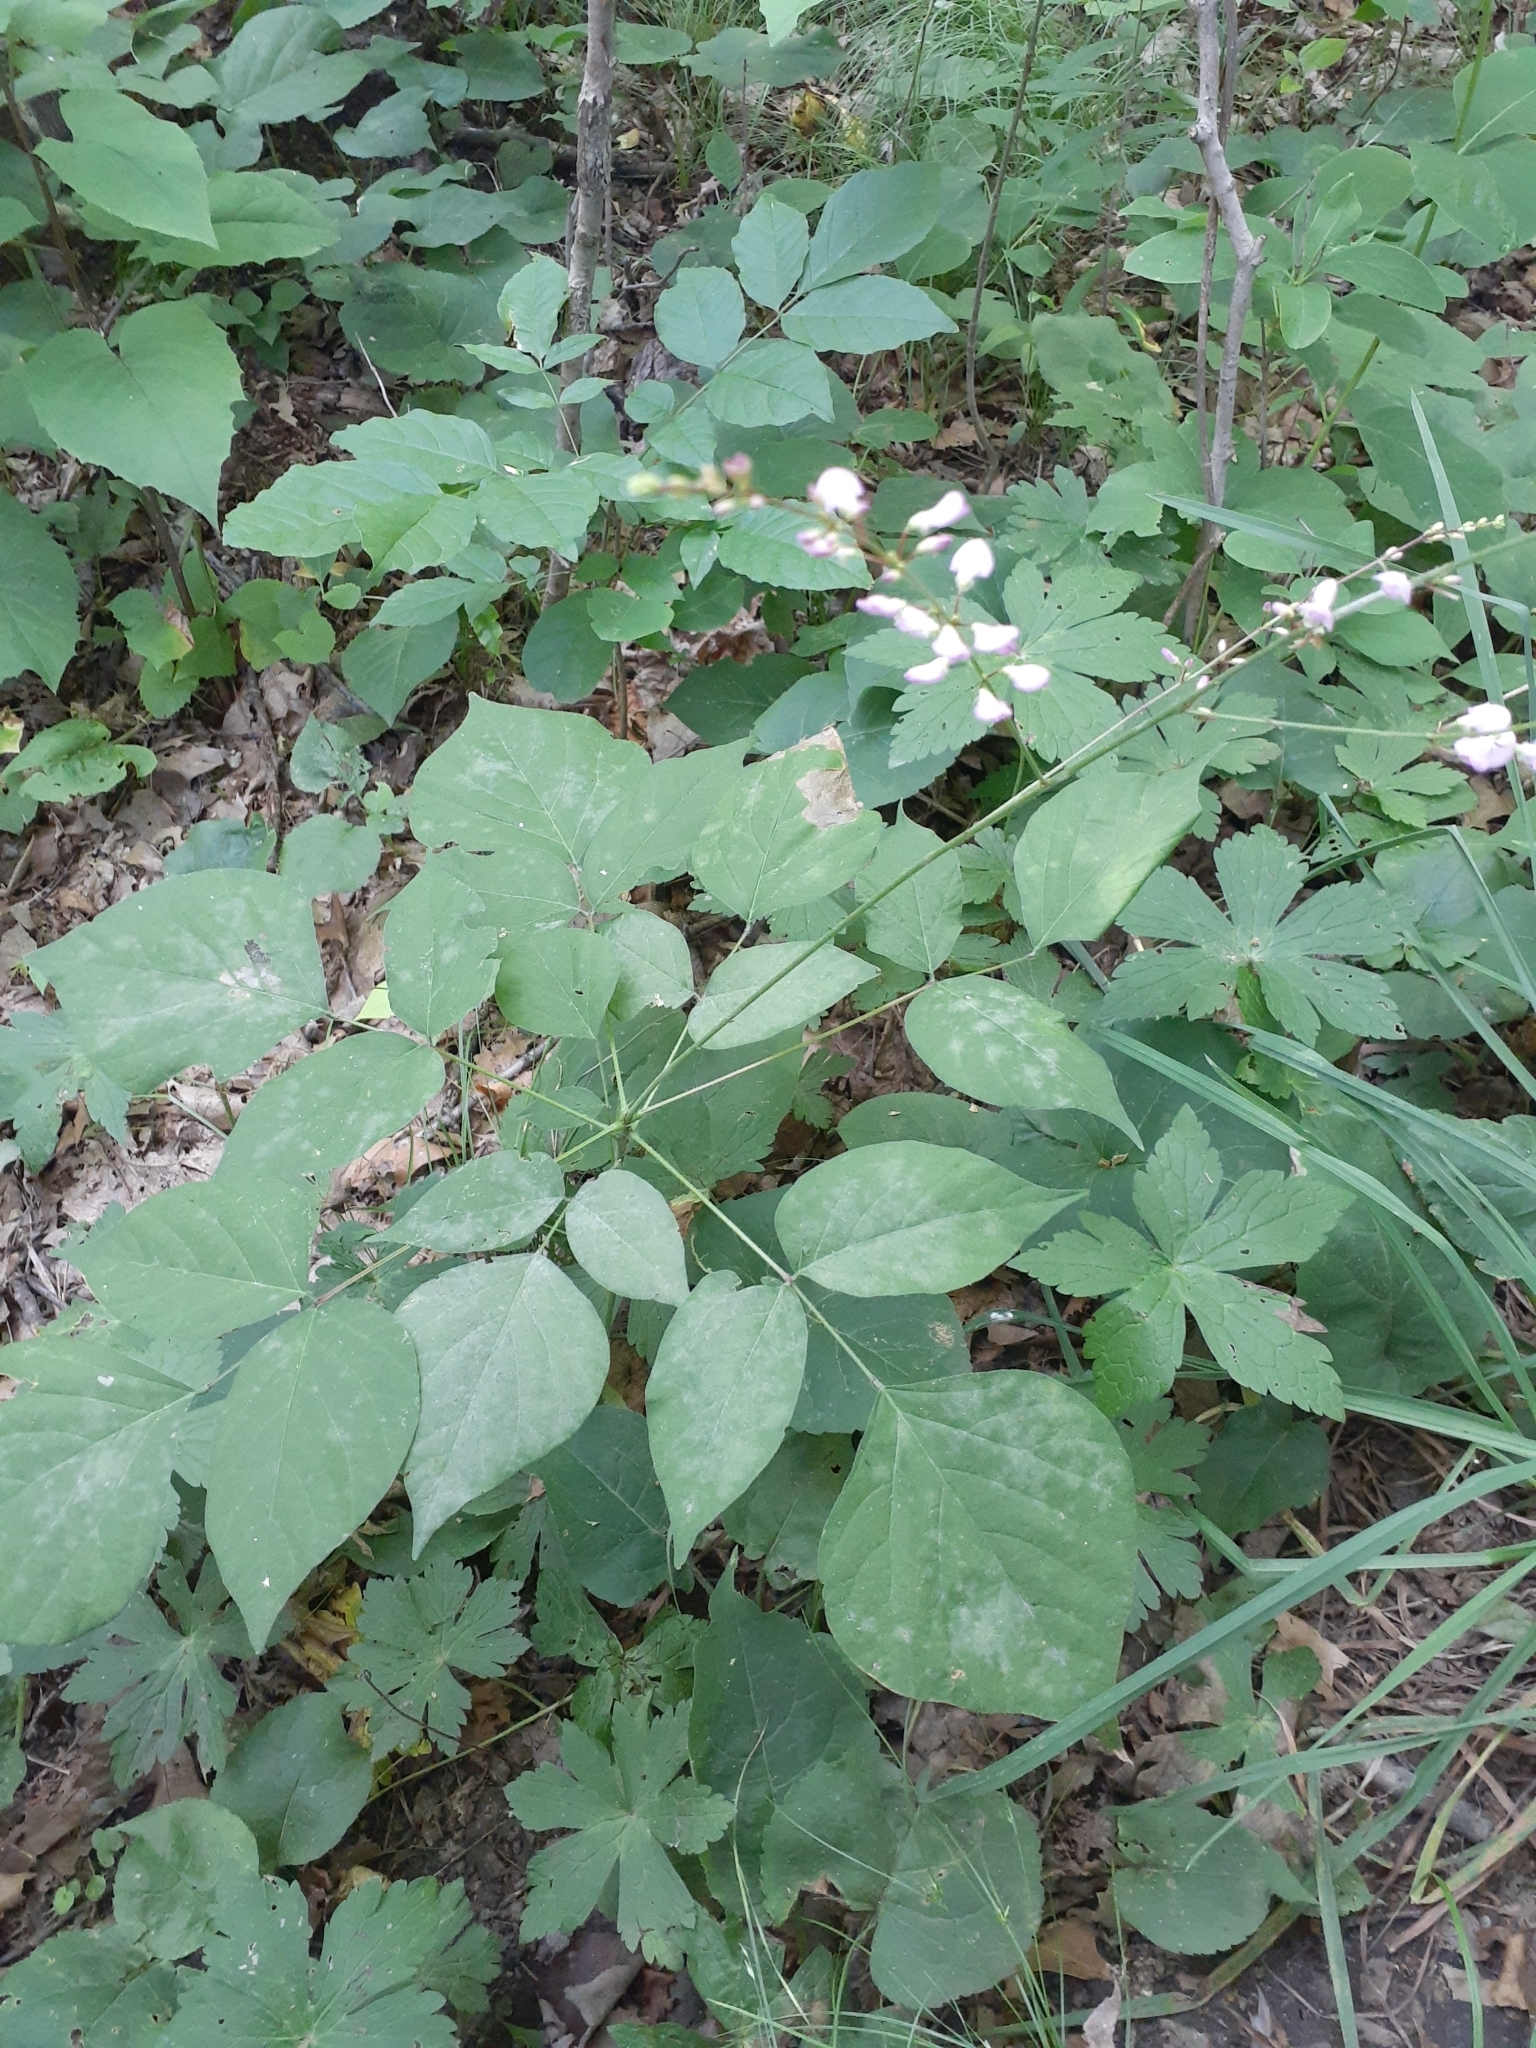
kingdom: Plantae
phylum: Tracheophyta
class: Magnoliopsida
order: Fabales
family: Fabaceae
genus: Hylodesmum
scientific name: Hylodesmum glutinosum
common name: Clustered-leaved tick-trefoil
